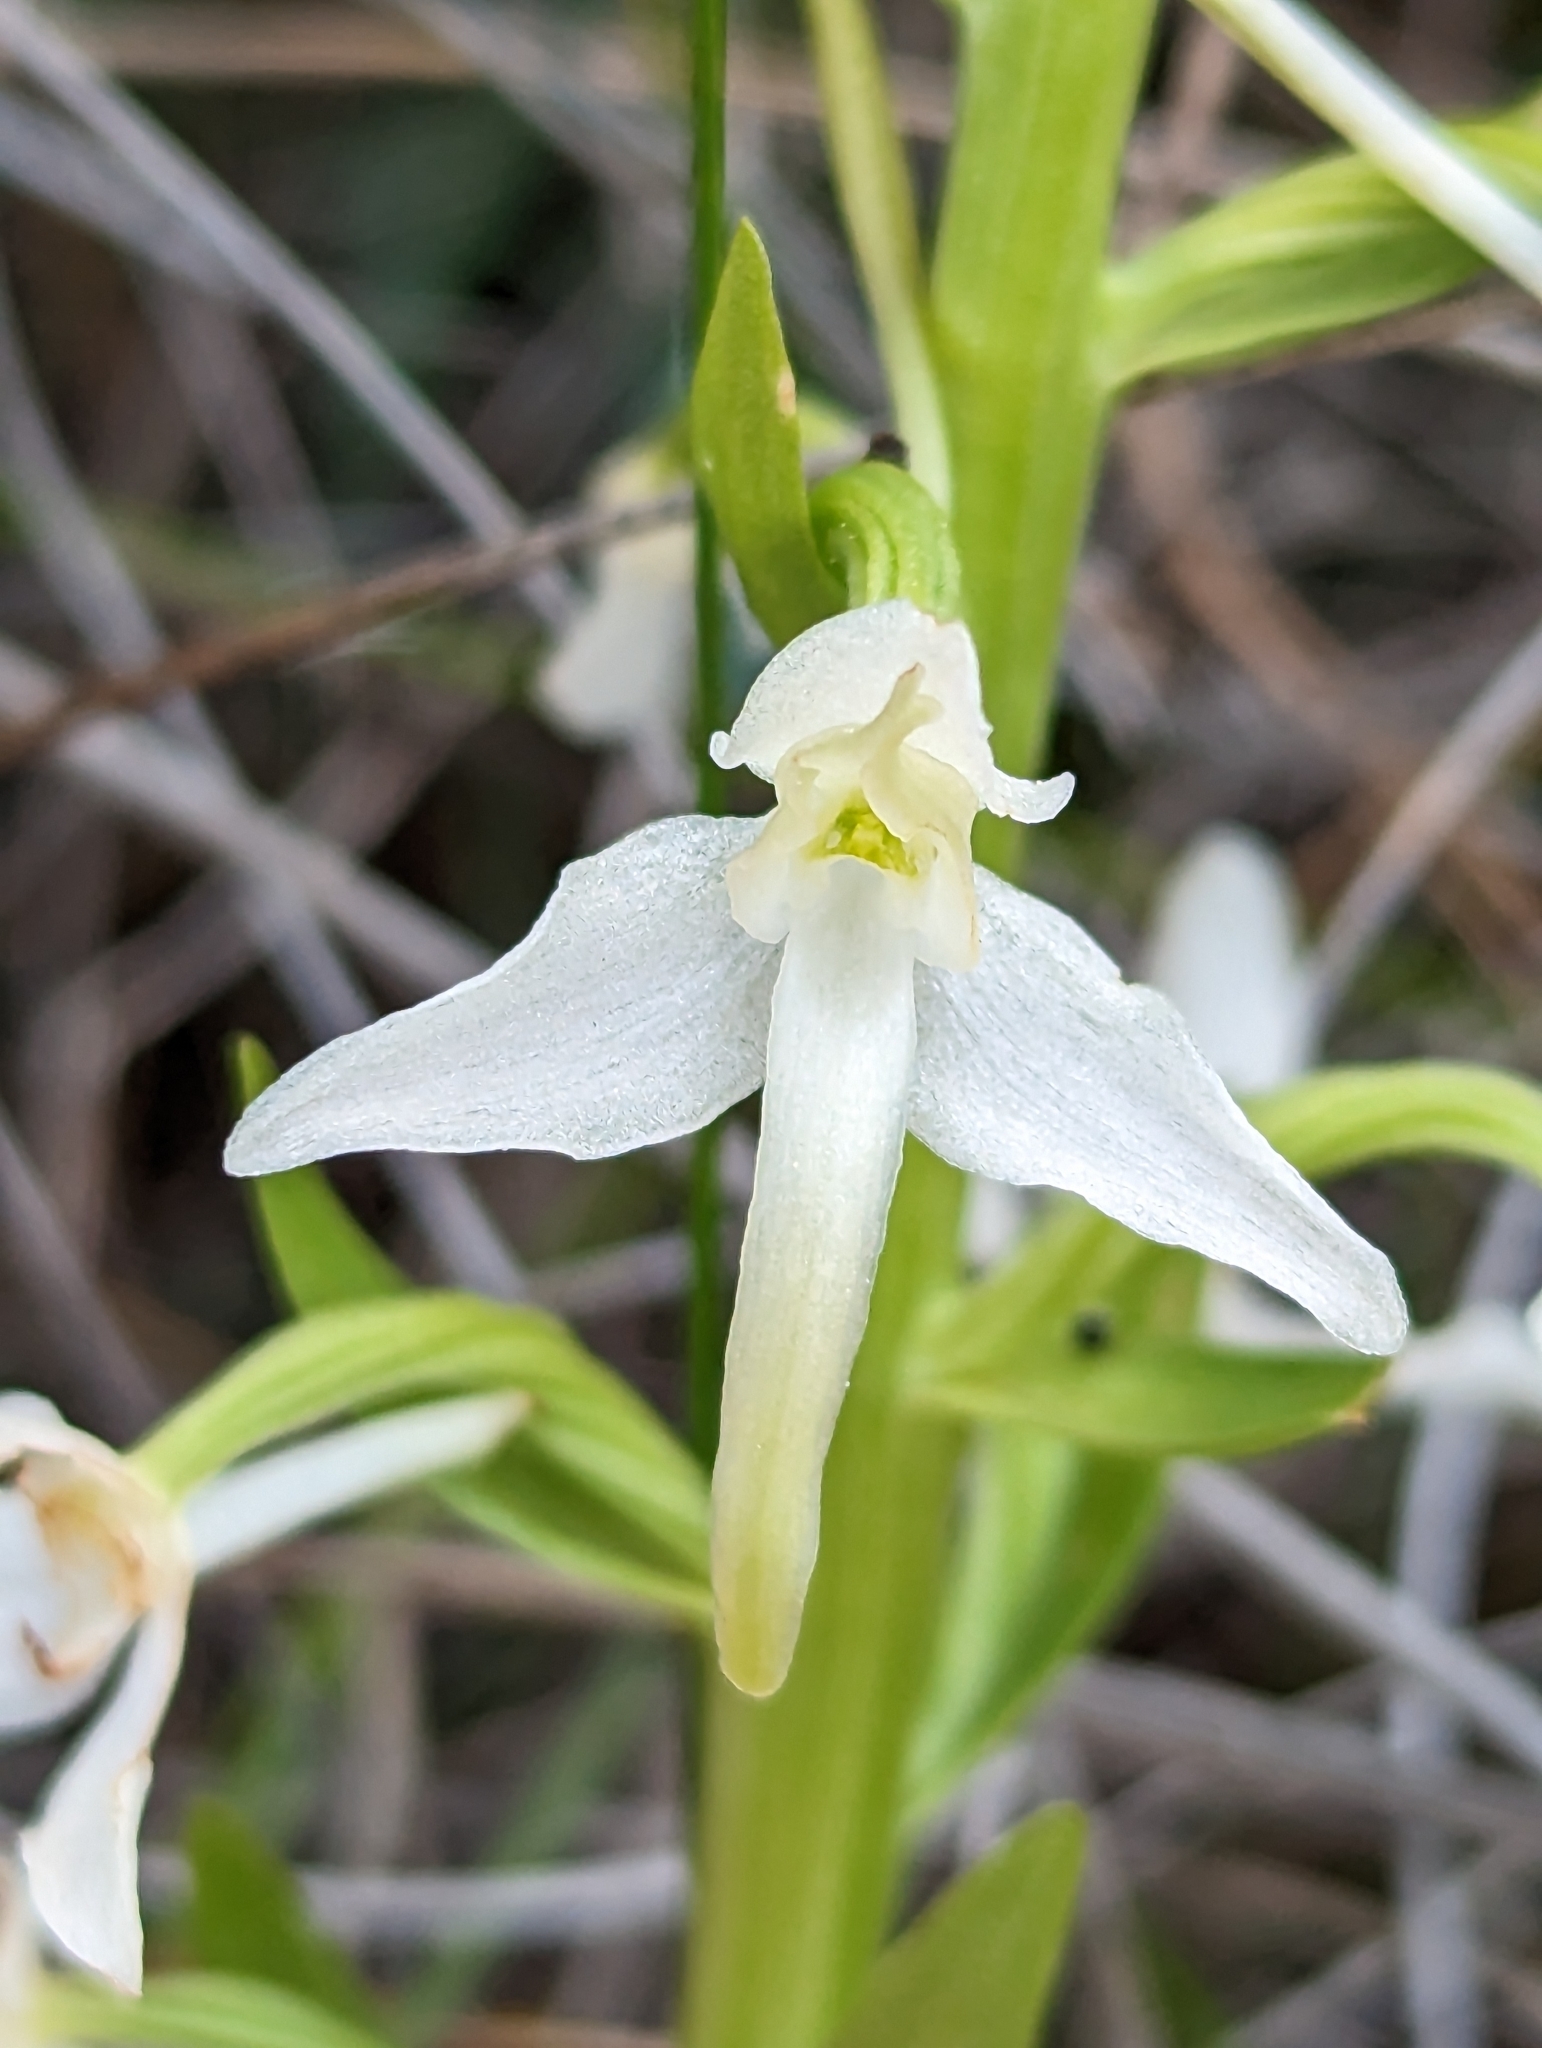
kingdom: Plantae
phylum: Tracheophyta
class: Liliopsida
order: Asparagales
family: Orchidaceae
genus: Platanthera
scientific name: Platanthera bifolia
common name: Lesser butterfly-orchid
